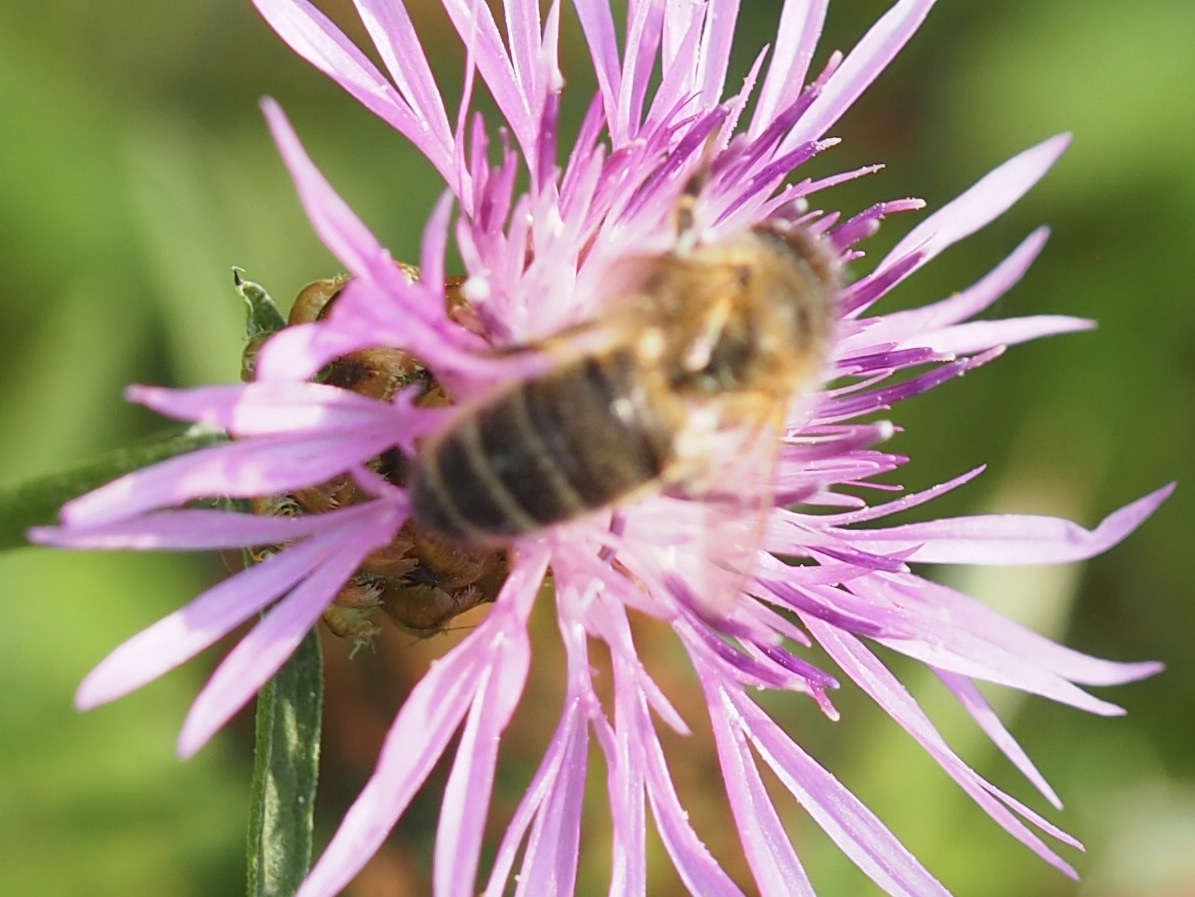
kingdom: Animalia
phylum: Arthropoda
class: Insecta
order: Hymenoptera
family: Apidae
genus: Apis
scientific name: Apis mellifera
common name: Honey bee
